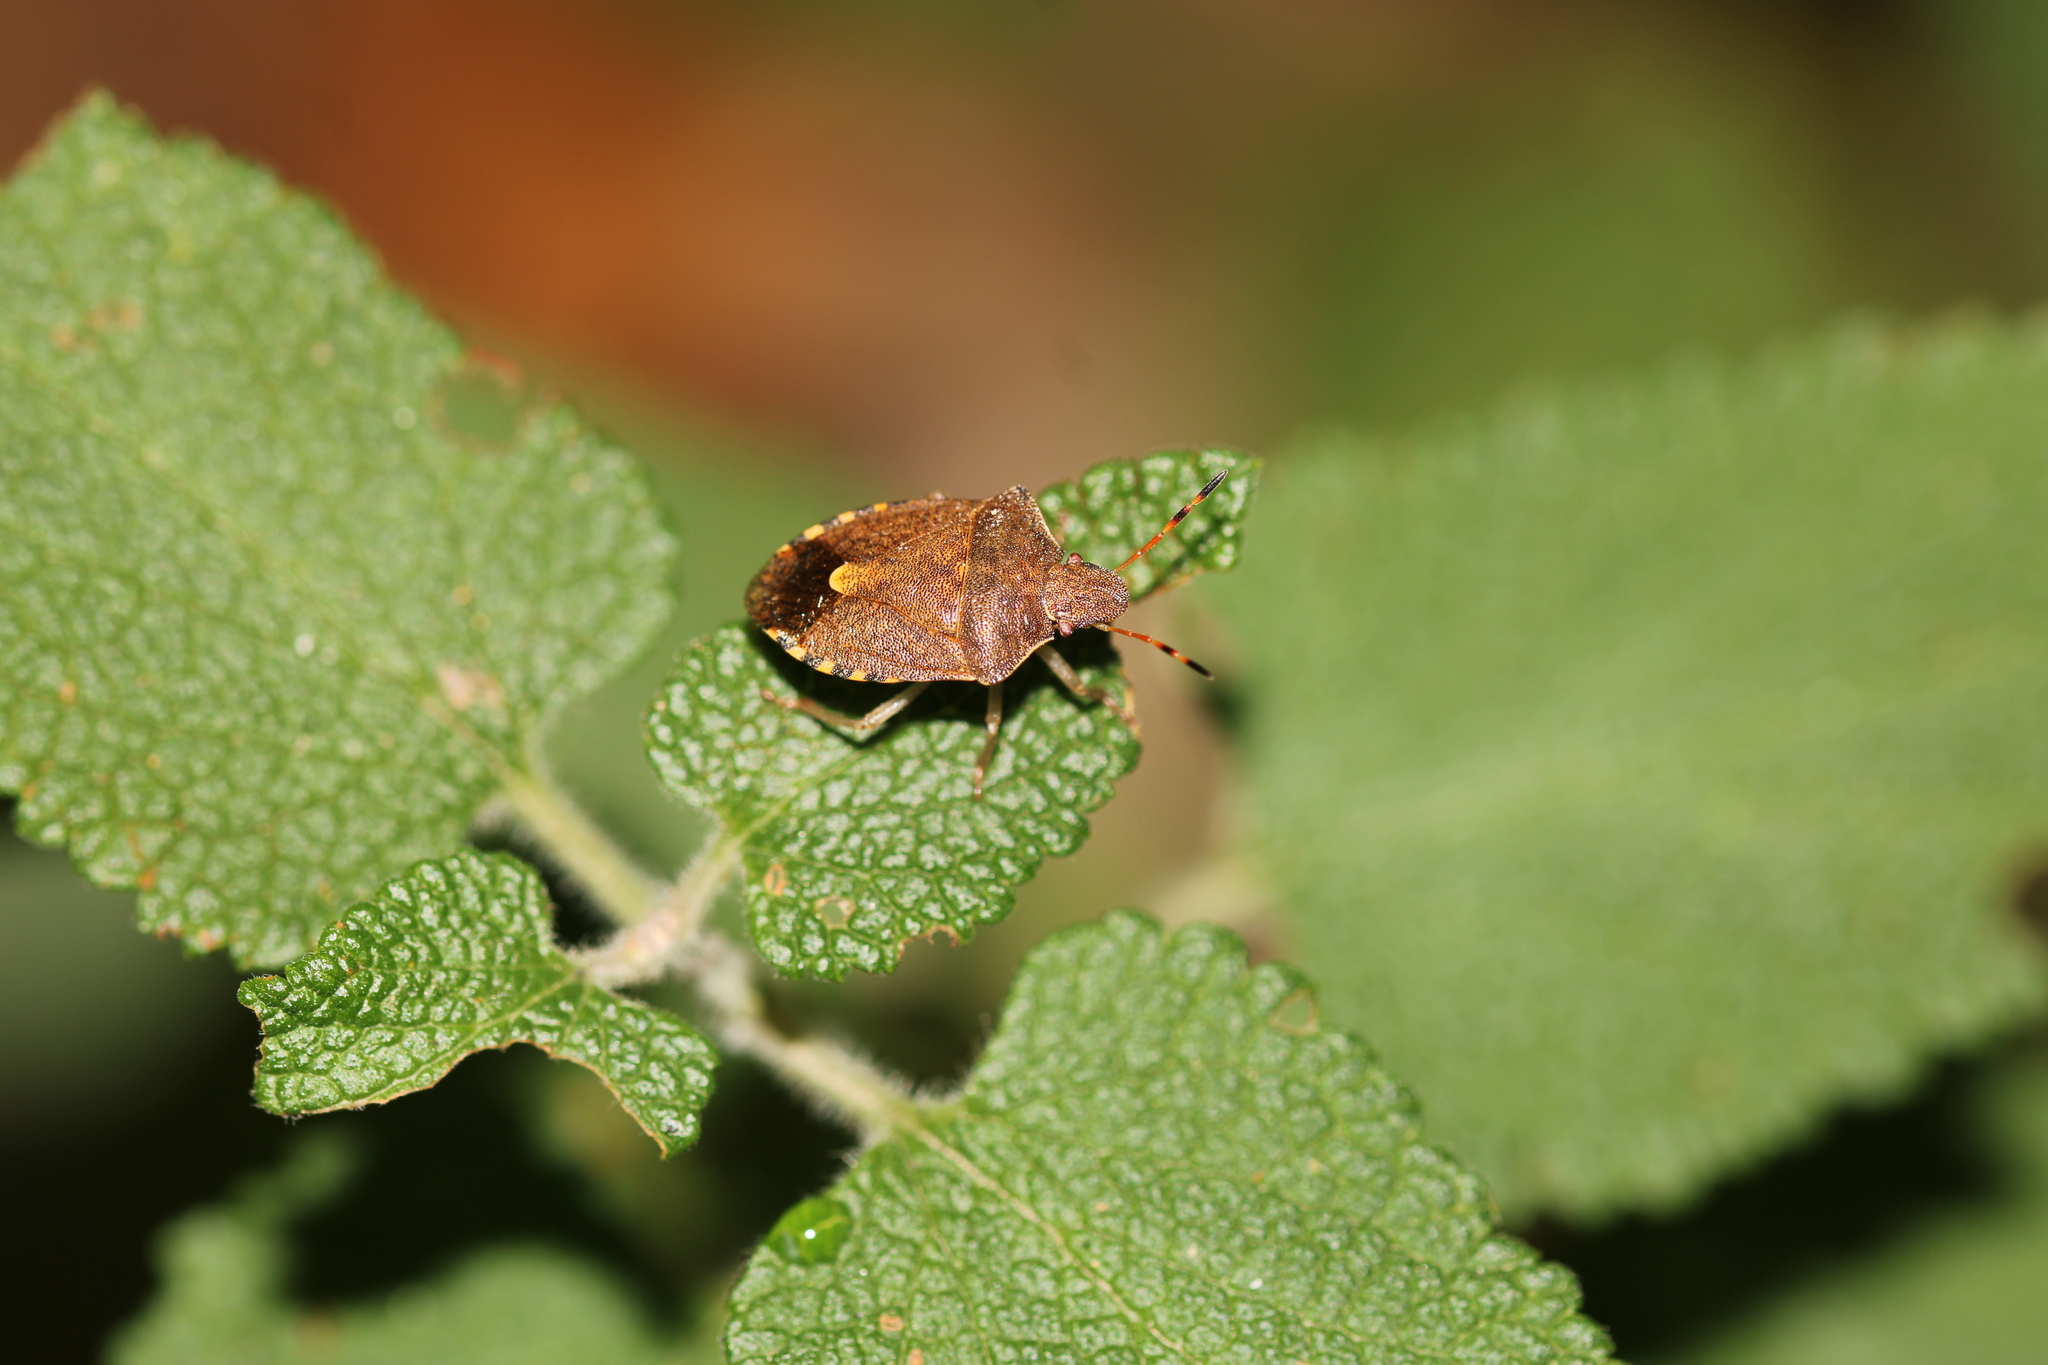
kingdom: Animalia
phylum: Arthropoda
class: Insecta
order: Hemiptera
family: Pentatomidae
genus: Holcostethus
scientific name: Holcostethus strictus
